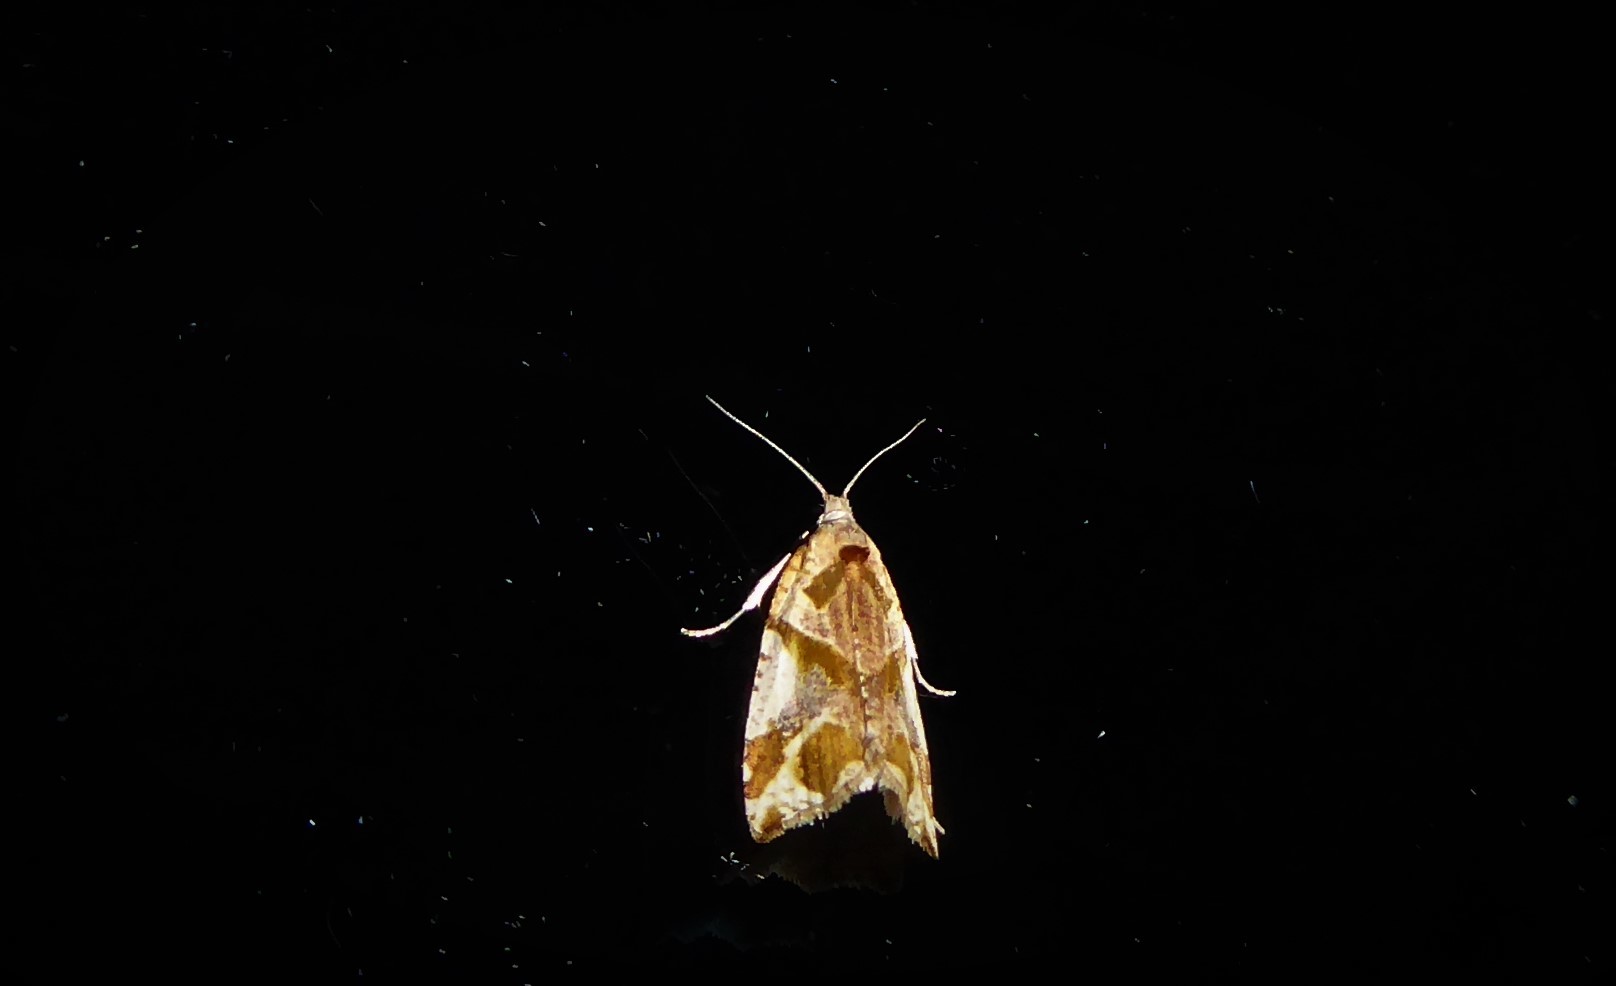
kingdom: Animalia
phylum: Arthropoda
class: Insecta
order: Lepidoptera
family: Tortricidae
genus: Pyrgotis
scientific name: Pyrgotis plagiatana
